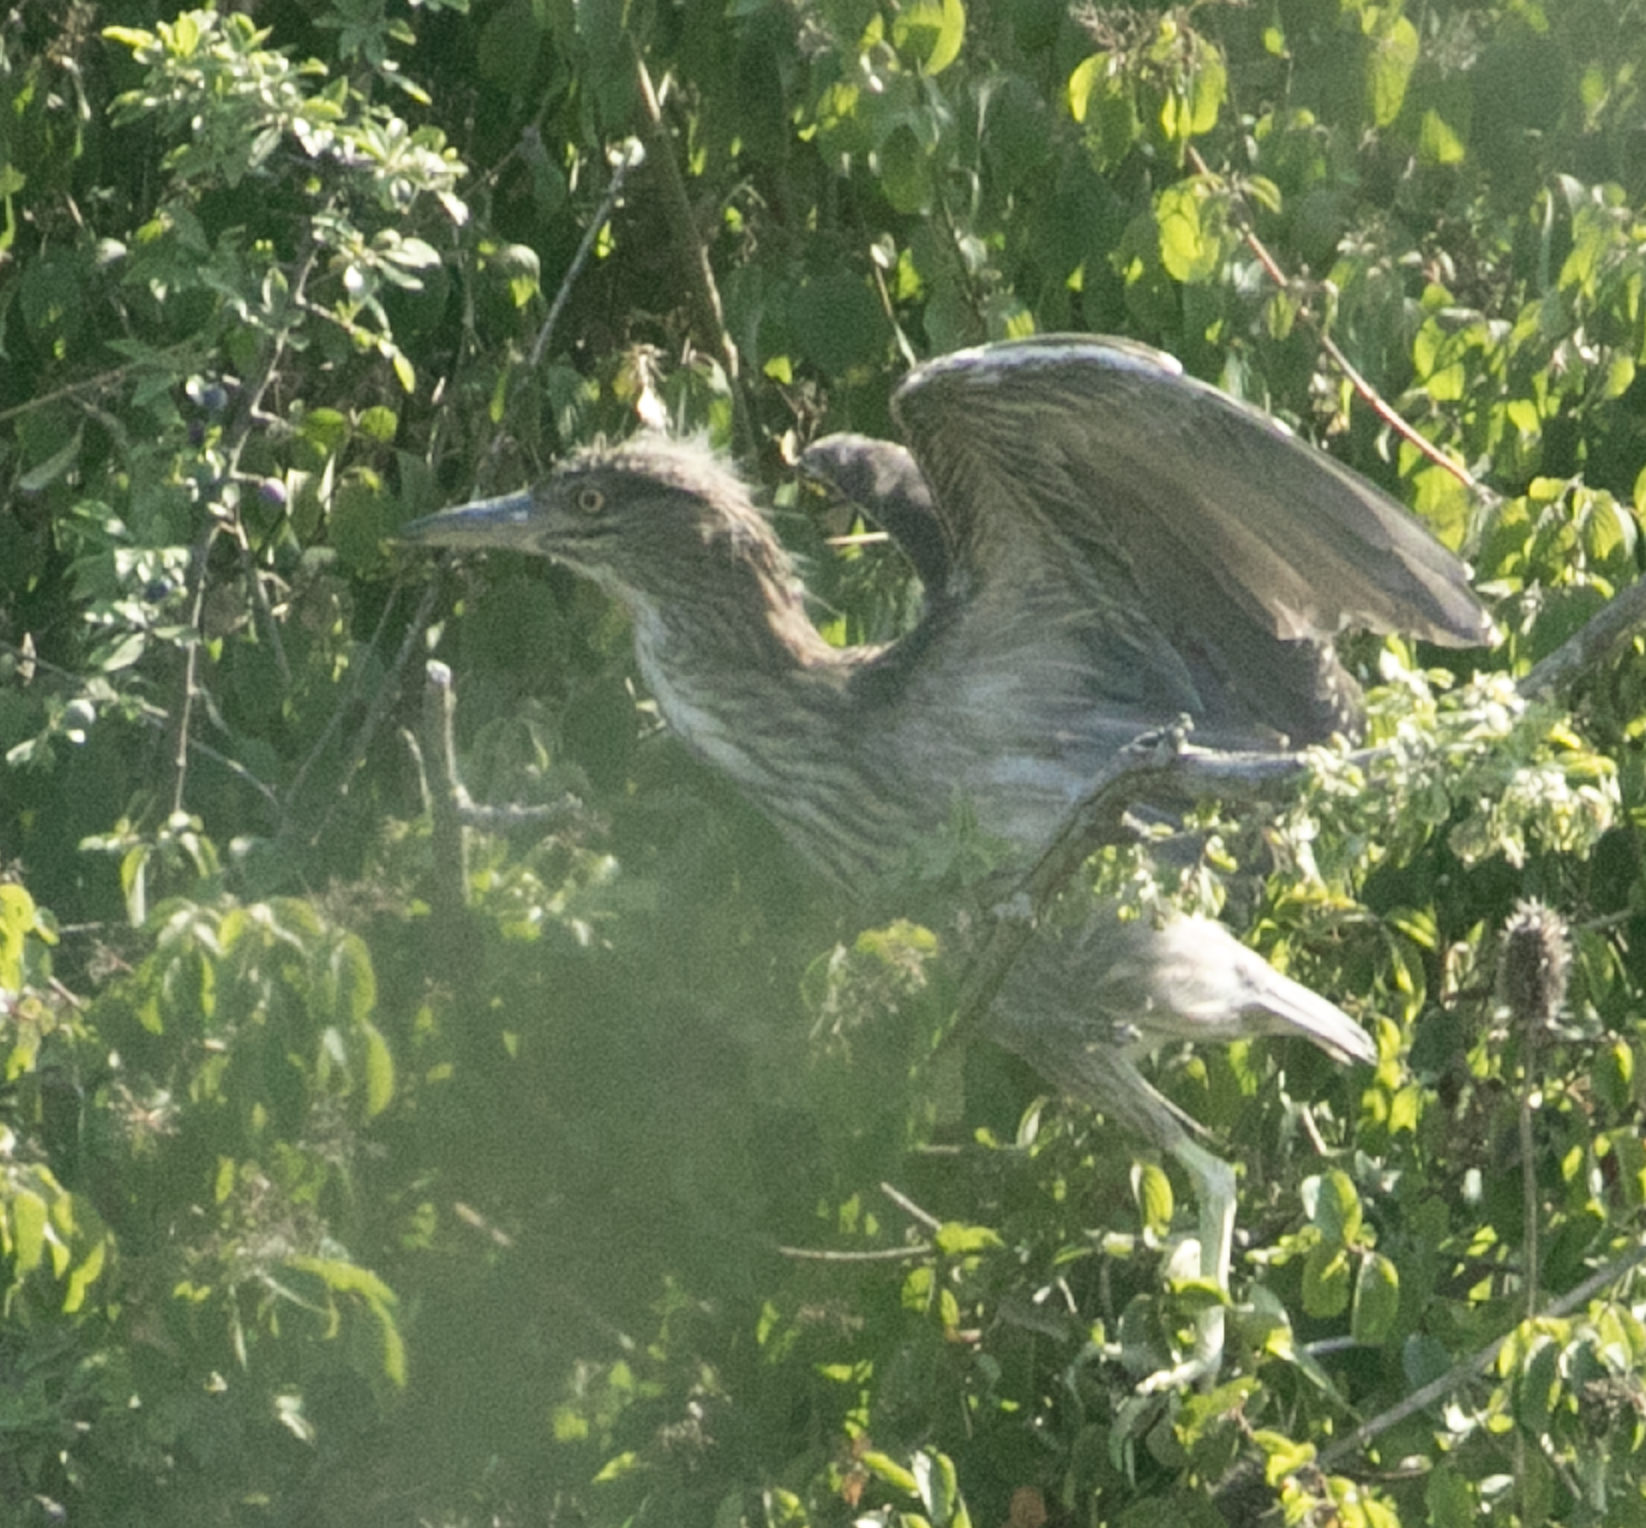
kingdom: Animalia
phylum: Chordata
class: Aves
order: Pelecaniformes
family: Ardeidae
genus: Nycticorax
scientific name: Nycticorax nycticorax
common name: Black-crowned night heron
